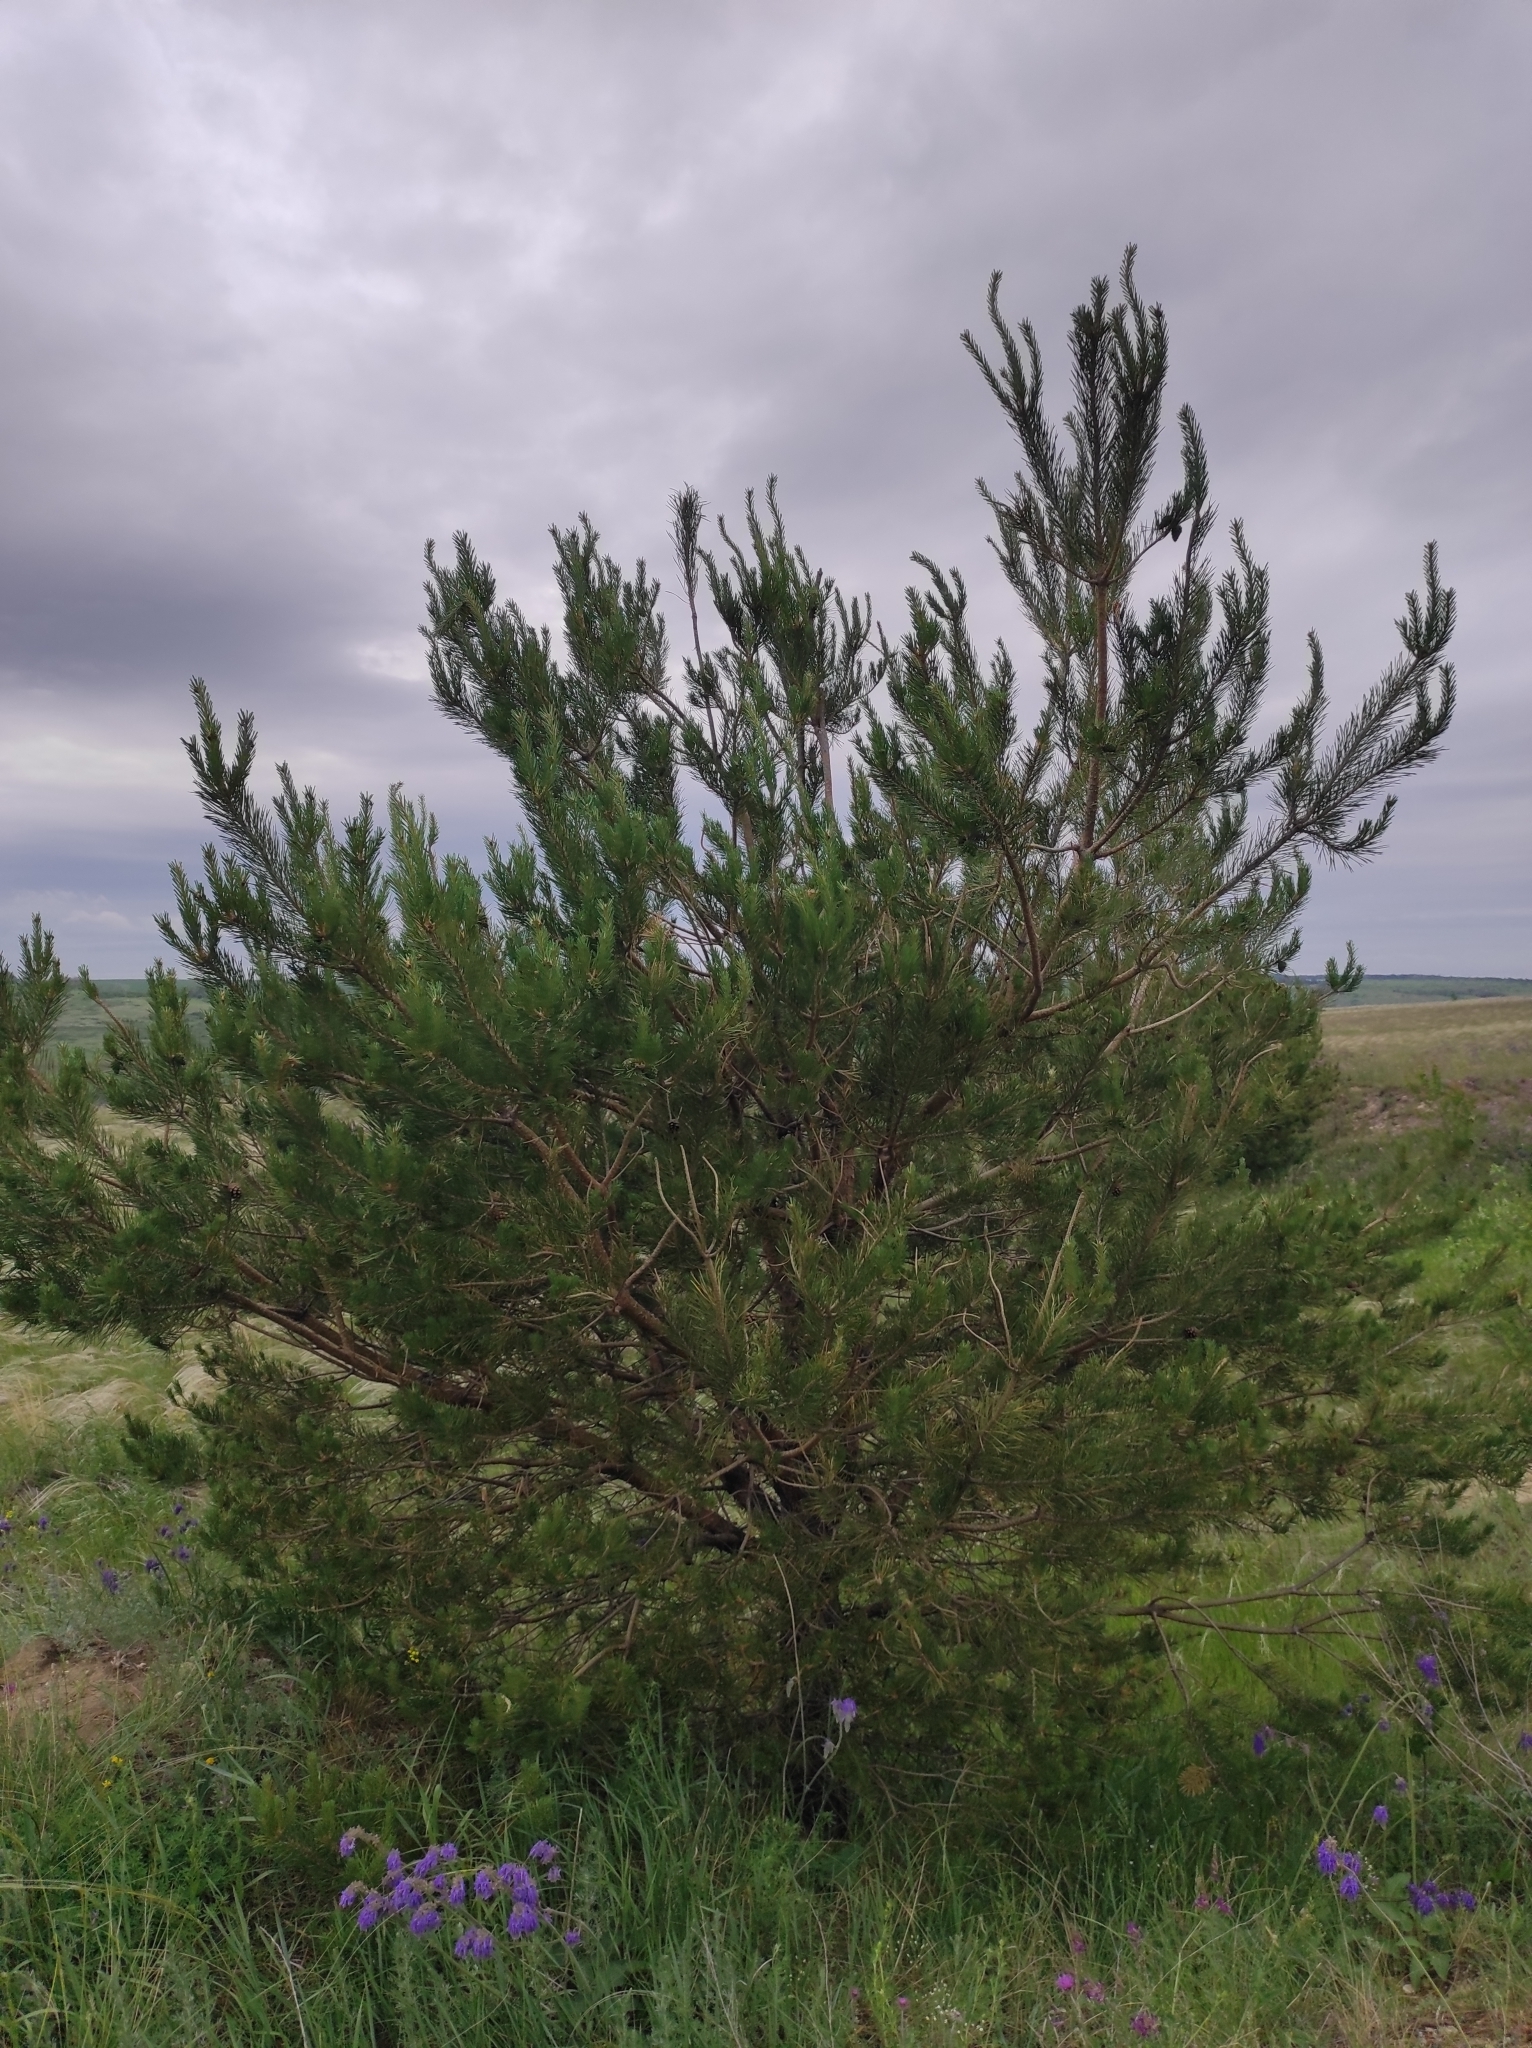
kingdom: Plantae
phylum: Tracheophyta
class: Pinopsida
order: Pinales
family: Pinaceae
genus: Pinus
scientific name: Pinus sylvestris
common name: Scots pine
